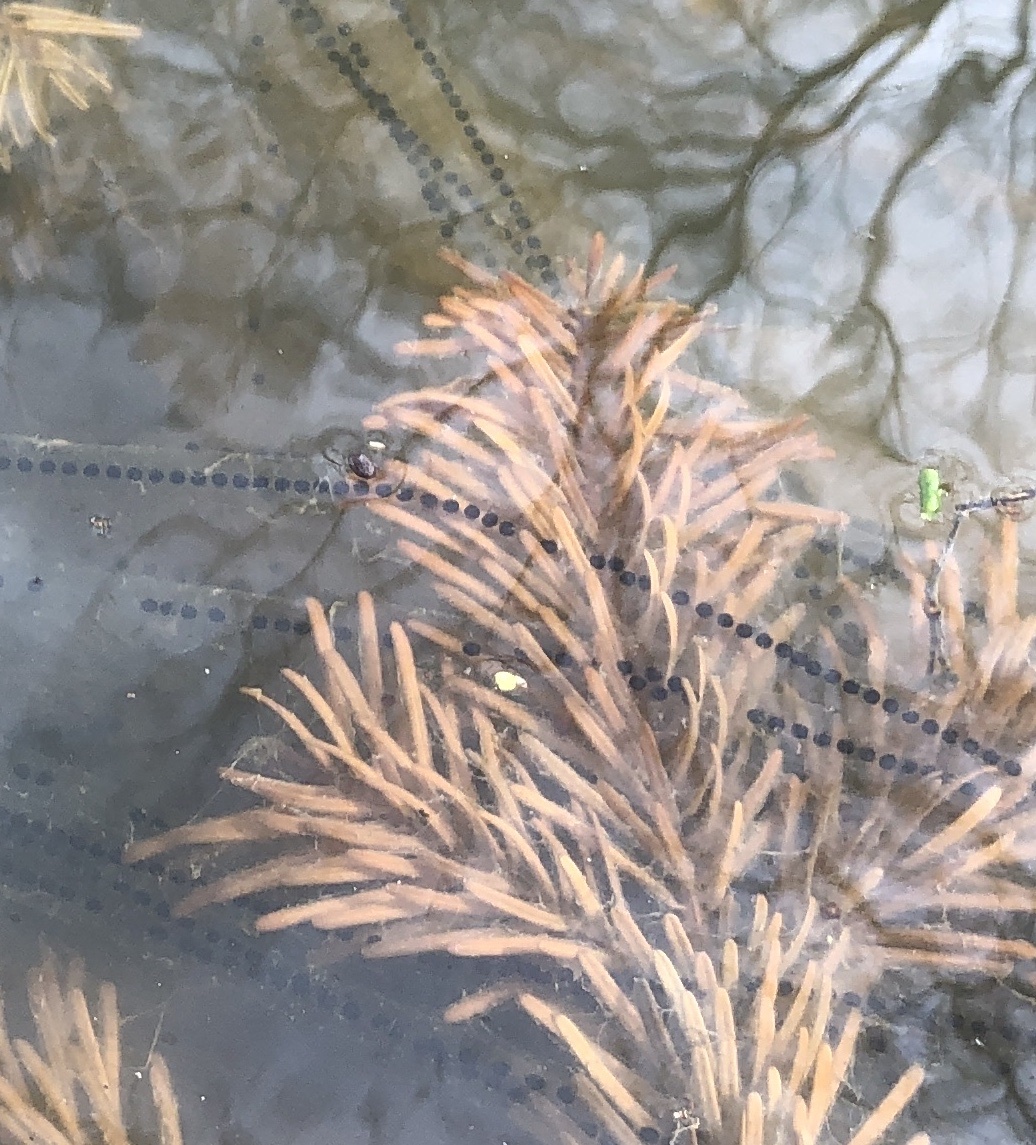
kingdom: Animalia
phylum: Chordata
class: Amphibia
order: Anura
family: Bufonidae
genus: Bufo
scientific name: Bufo bufo
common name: Common toad
